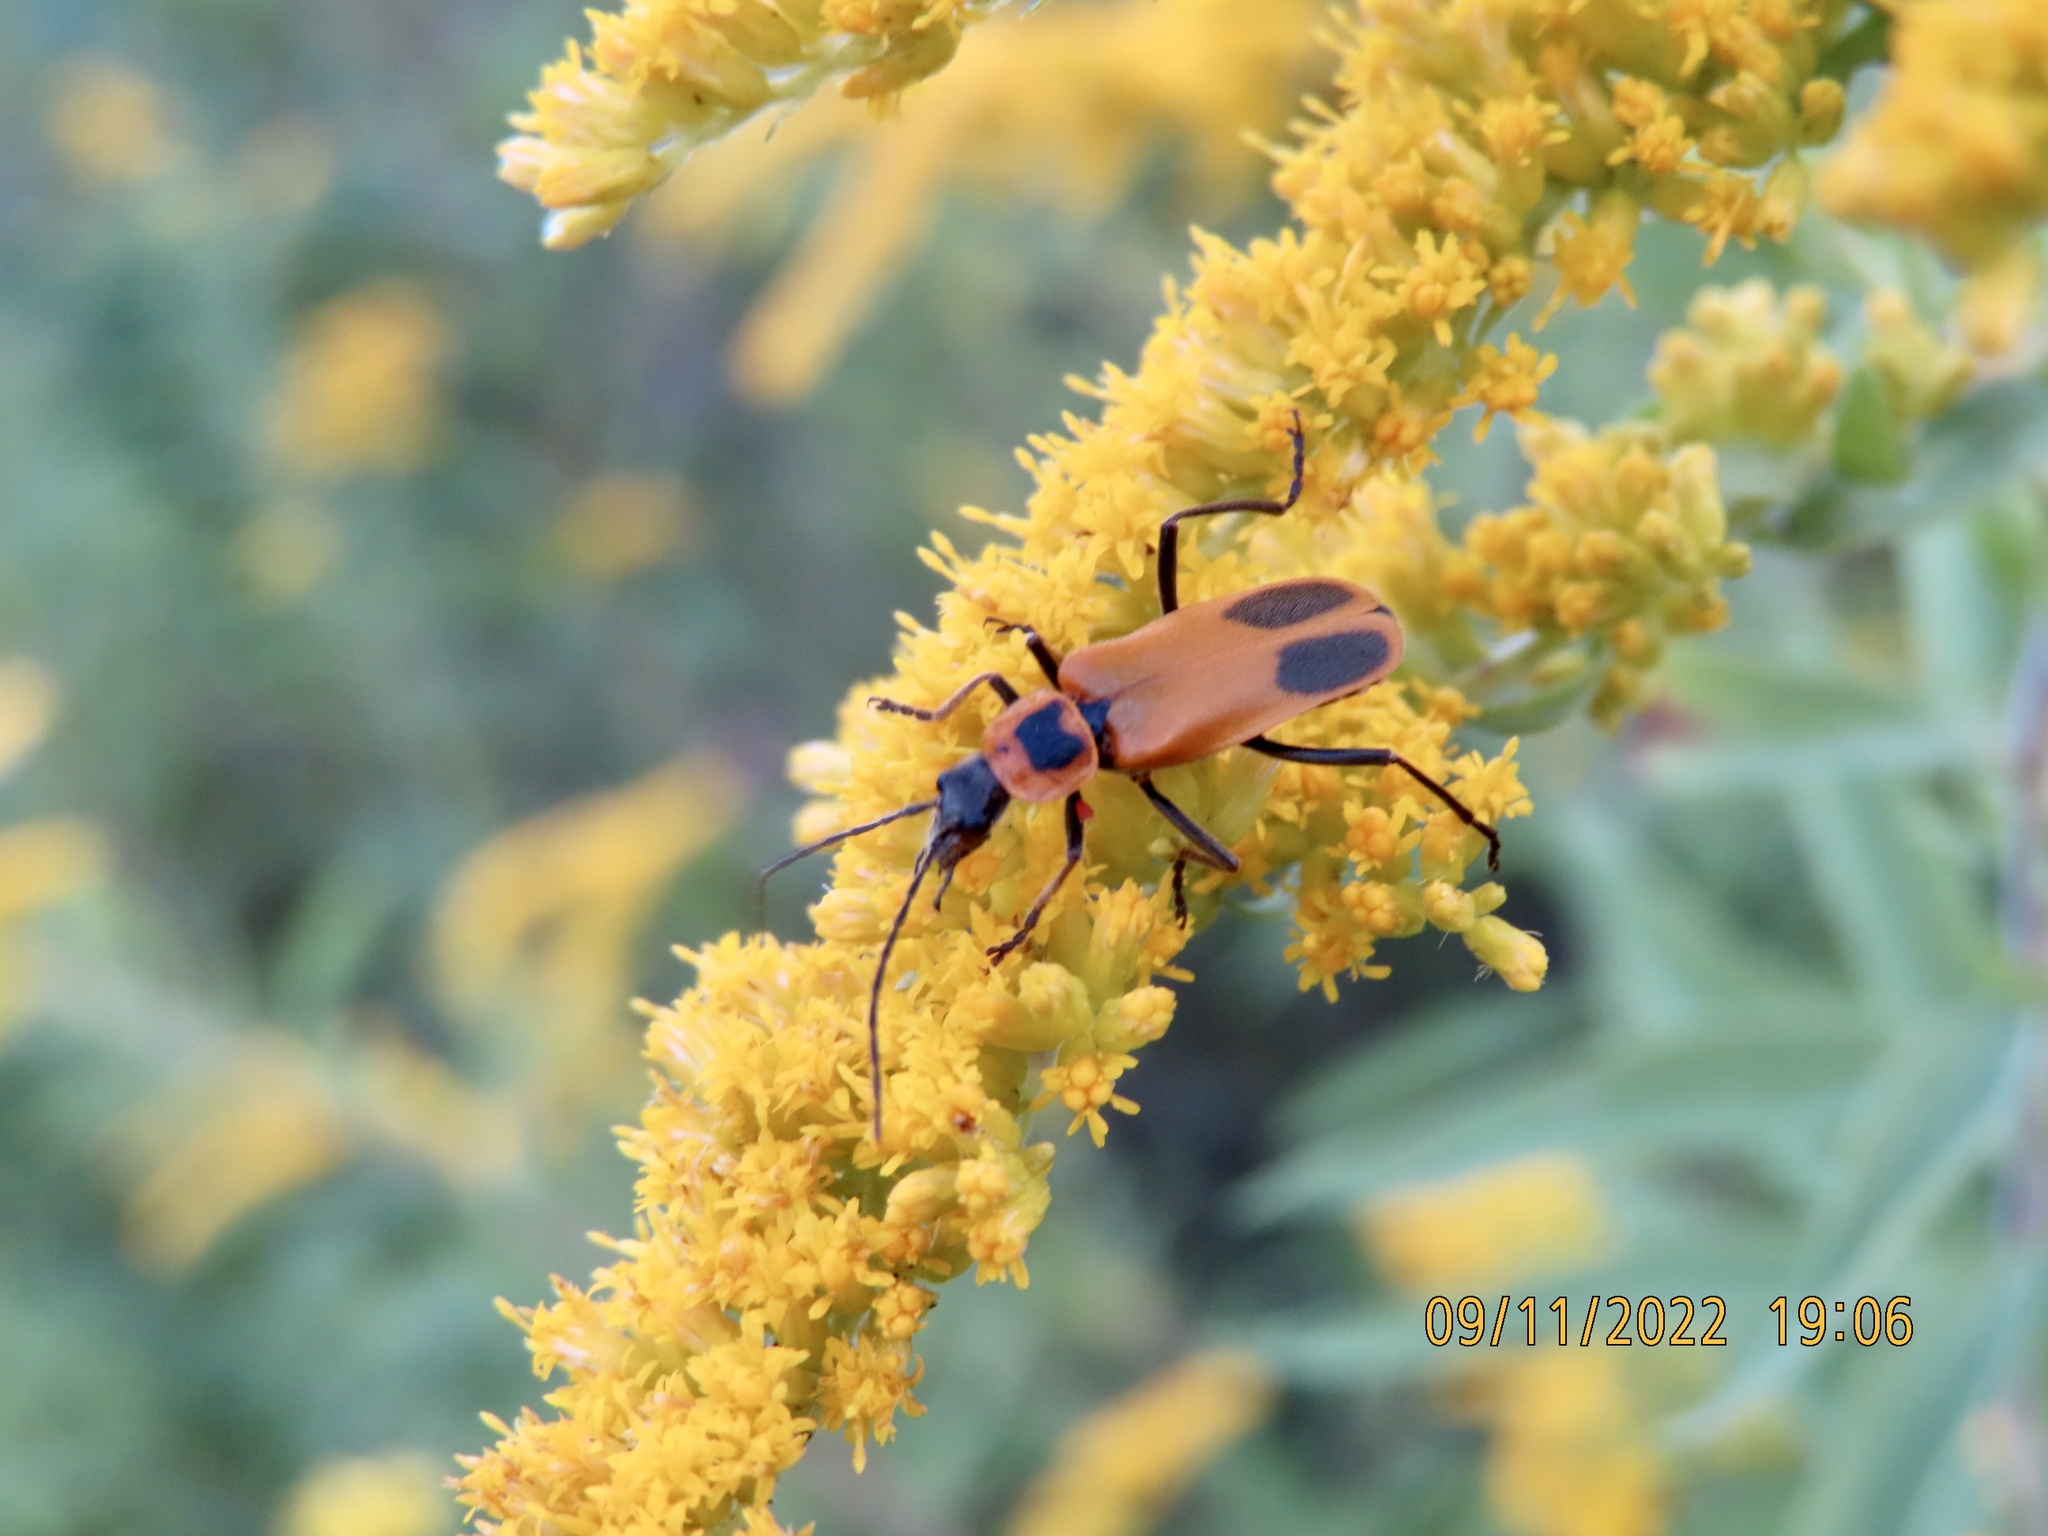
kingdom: Animalia
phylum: Arthropoda
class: Insecta
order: Coleoptera
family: Cantharidae
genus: Chauliognathus
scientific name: Chauliognathus pensylvanicus
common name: Goldenrod soldier beetle
